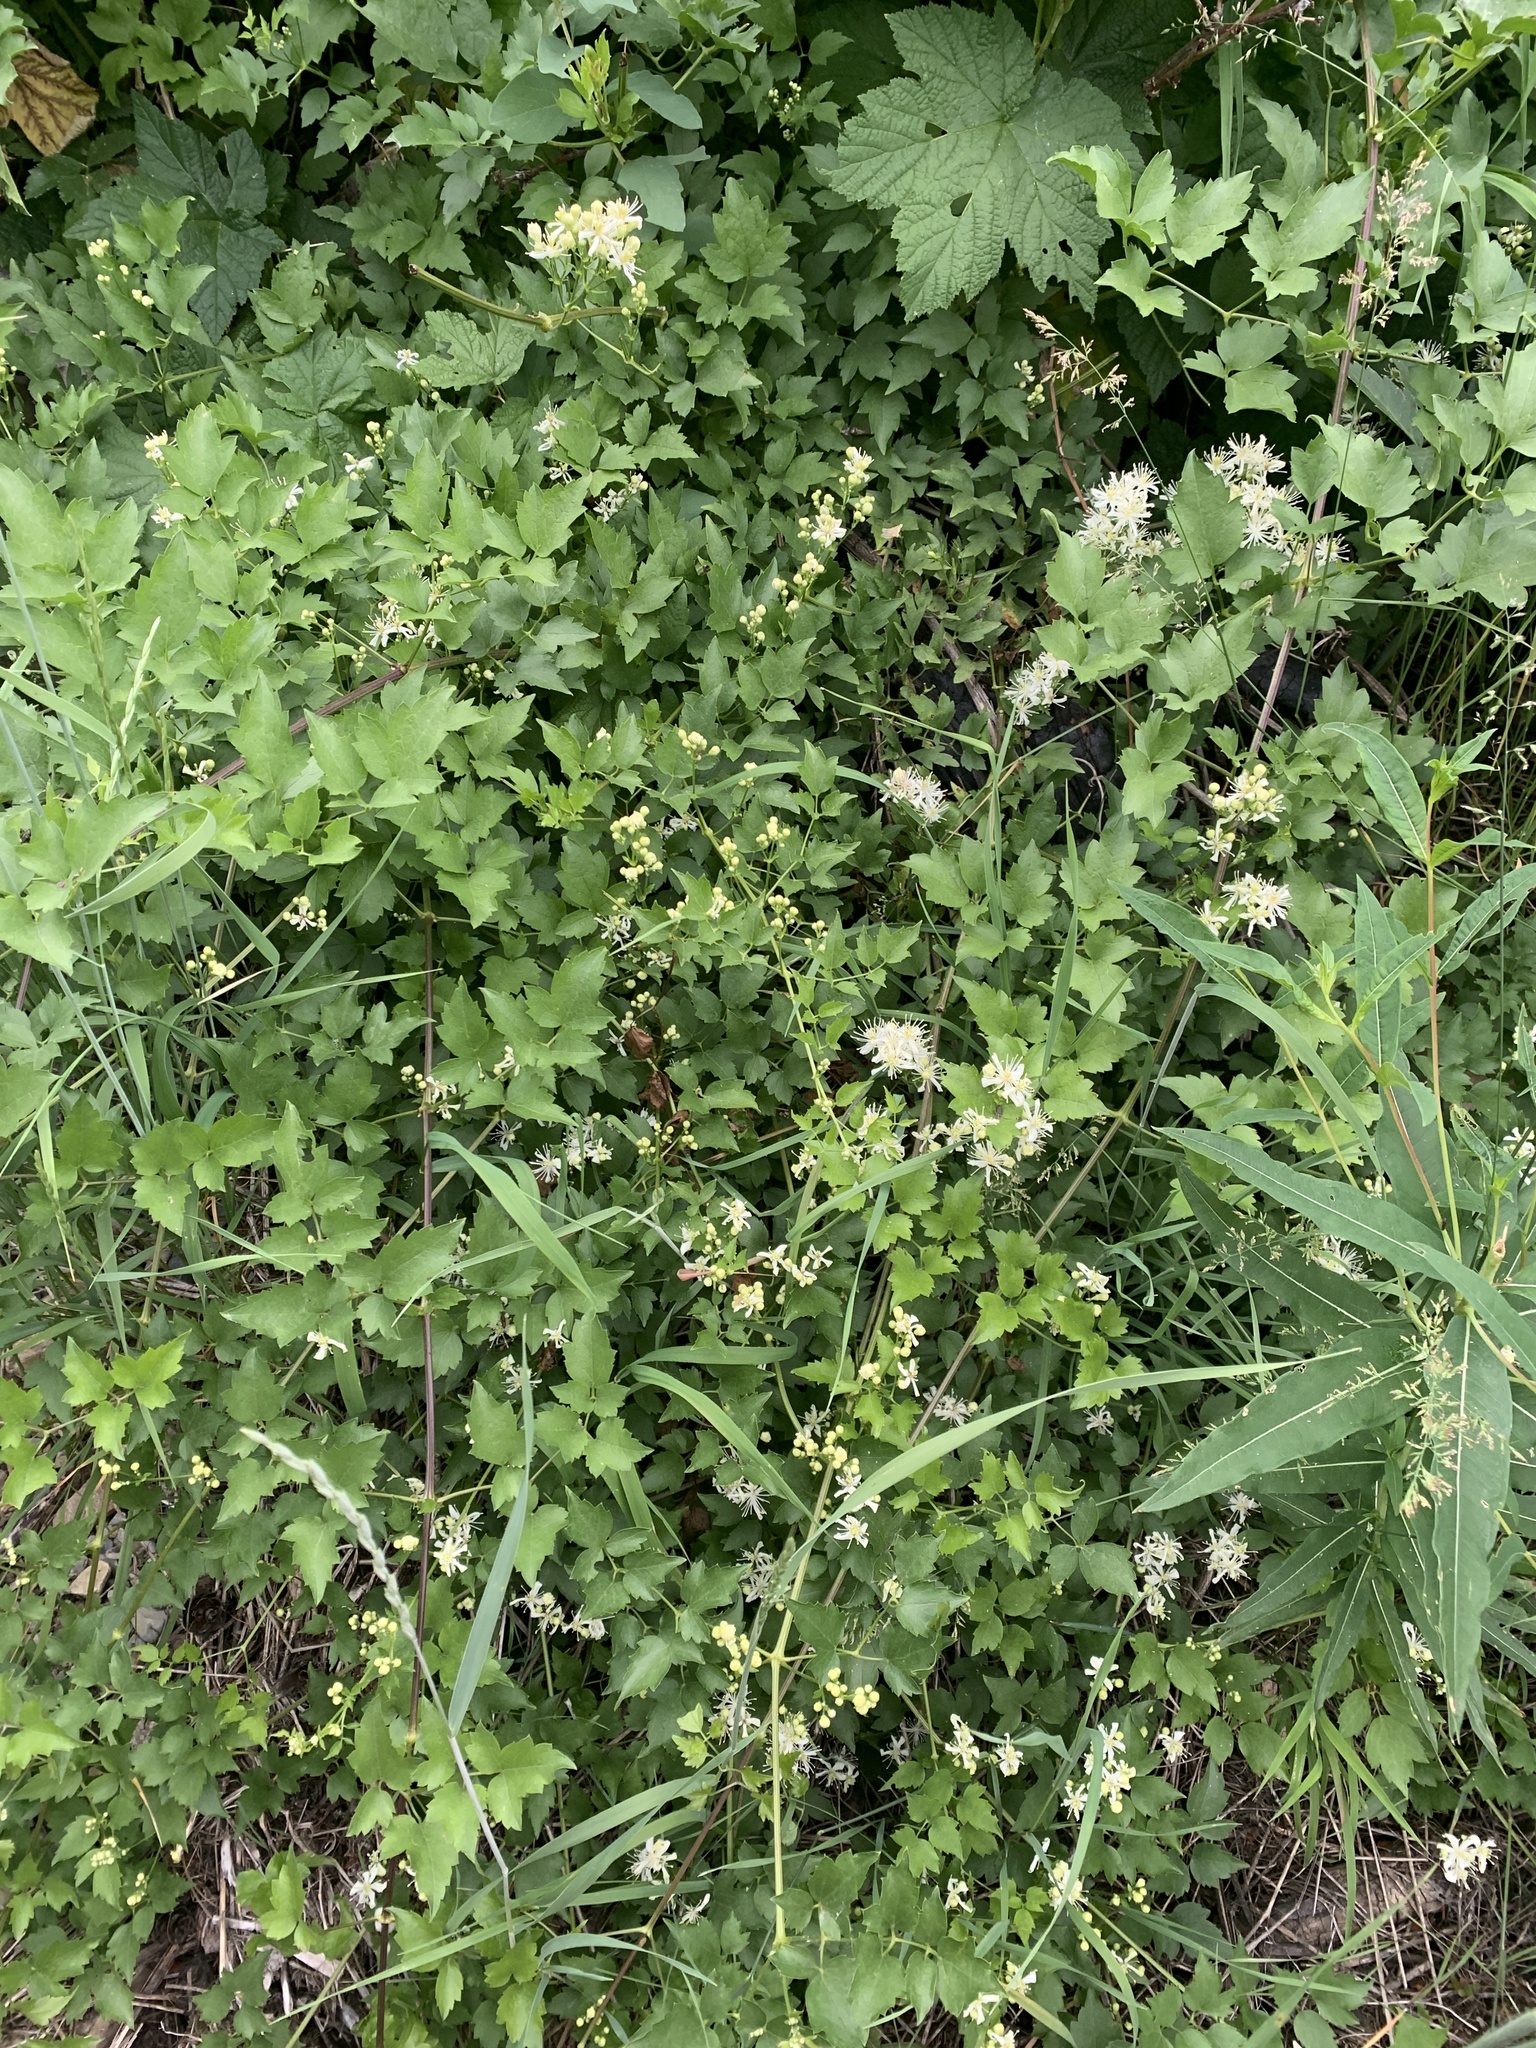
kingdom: Plantae
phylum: Tracheophyta
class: Magnoliopsida
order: Ranunculales
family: Ranunculaceae
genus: Clematis
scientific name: Clematis ligusticifolia
